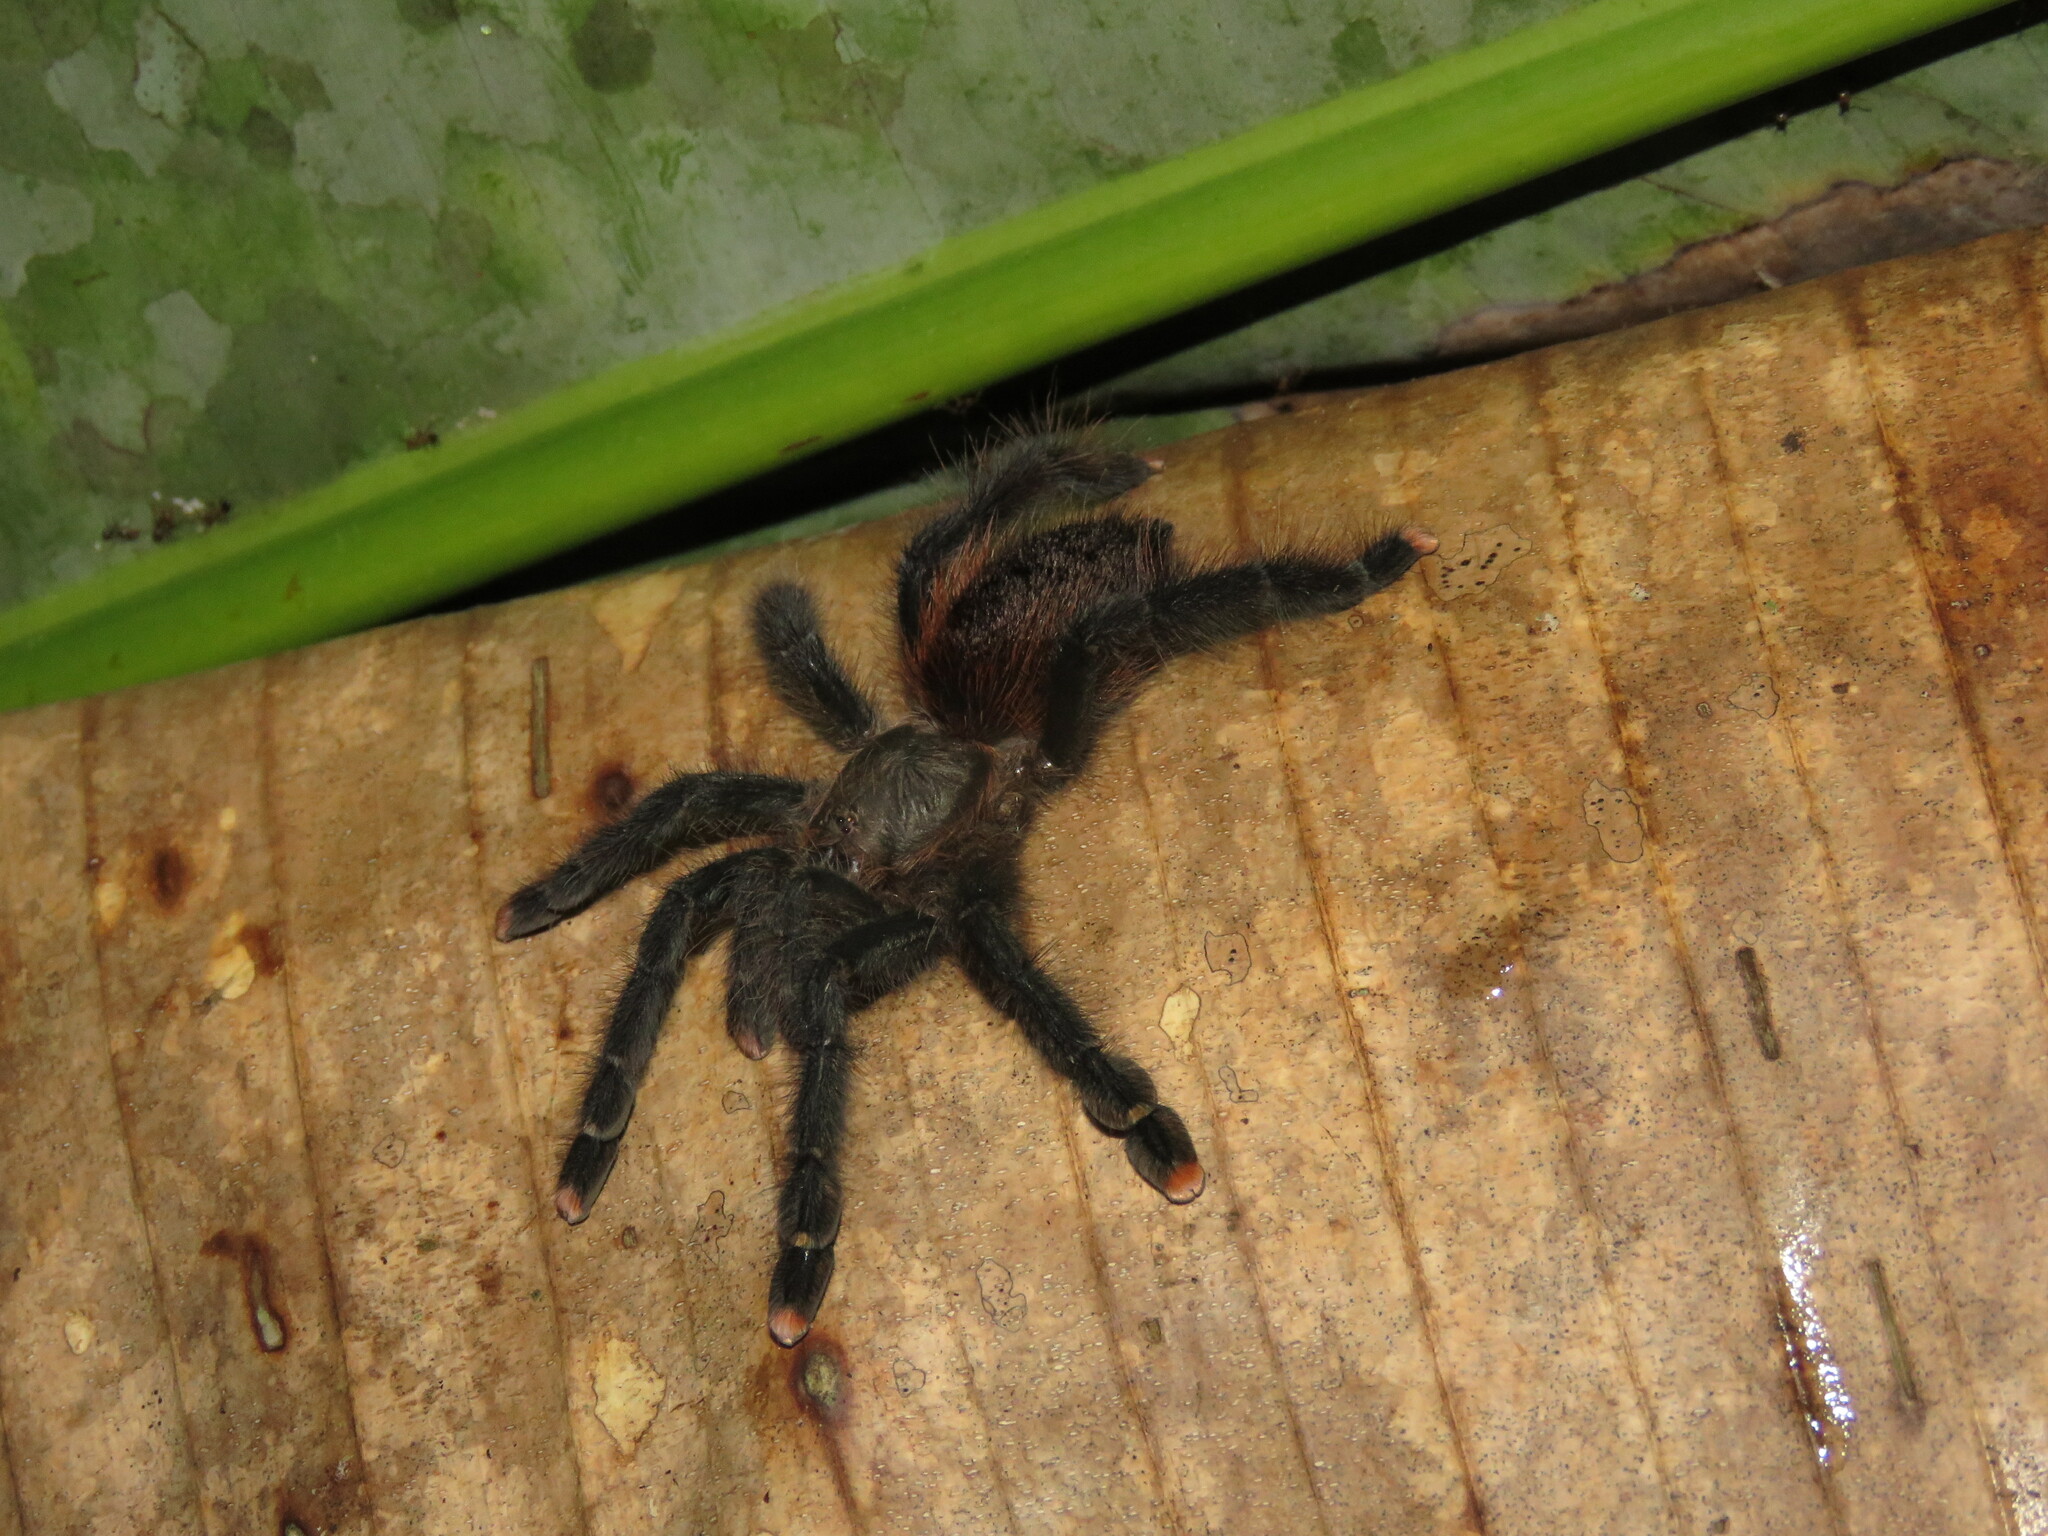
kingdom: Animalia
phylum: Arthropoda
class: Arachnida
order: Araneae
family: Theraphosidae
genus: Avicularia
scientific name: Avicularia avicularia
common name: Tarantula spiders
